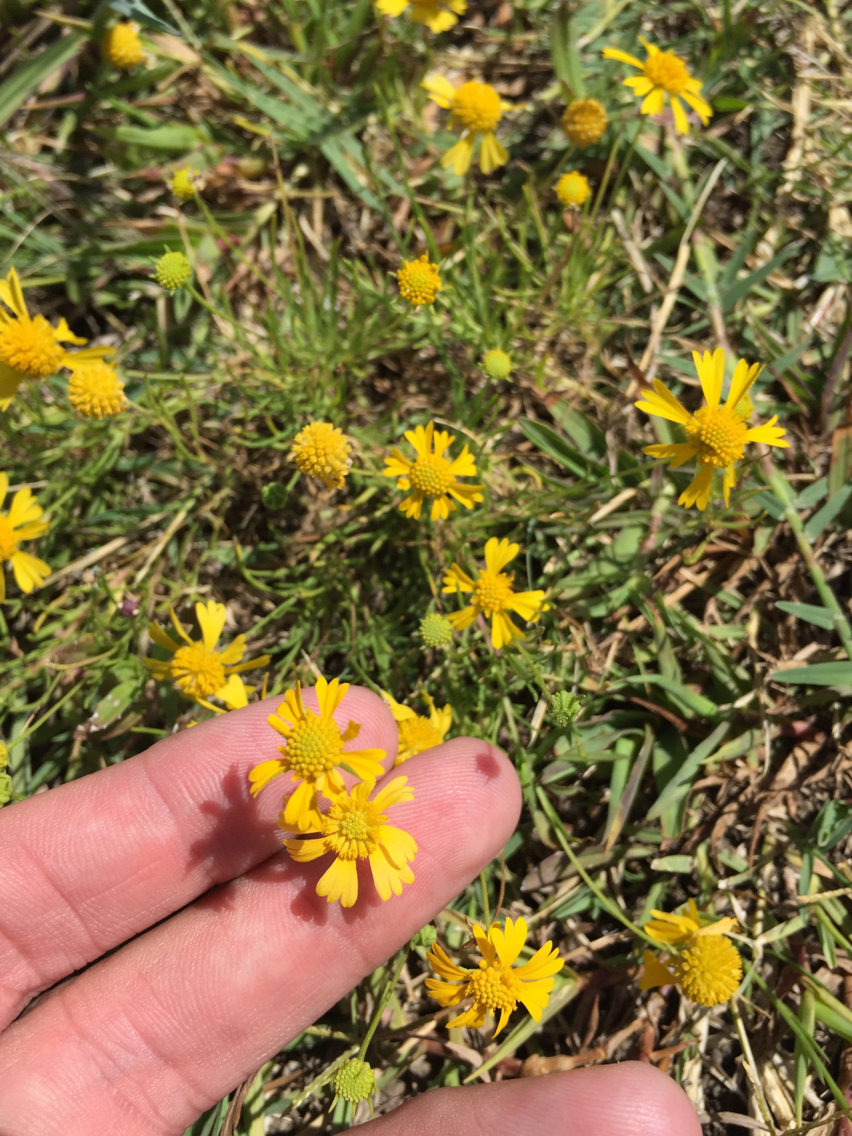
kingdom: Plantae
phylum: Tracheophyta
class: Magnoliopsida
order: Asterales
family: Asteraceae
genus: Helenium
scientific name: Helenium amarum
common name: Bitter sneezeweed
